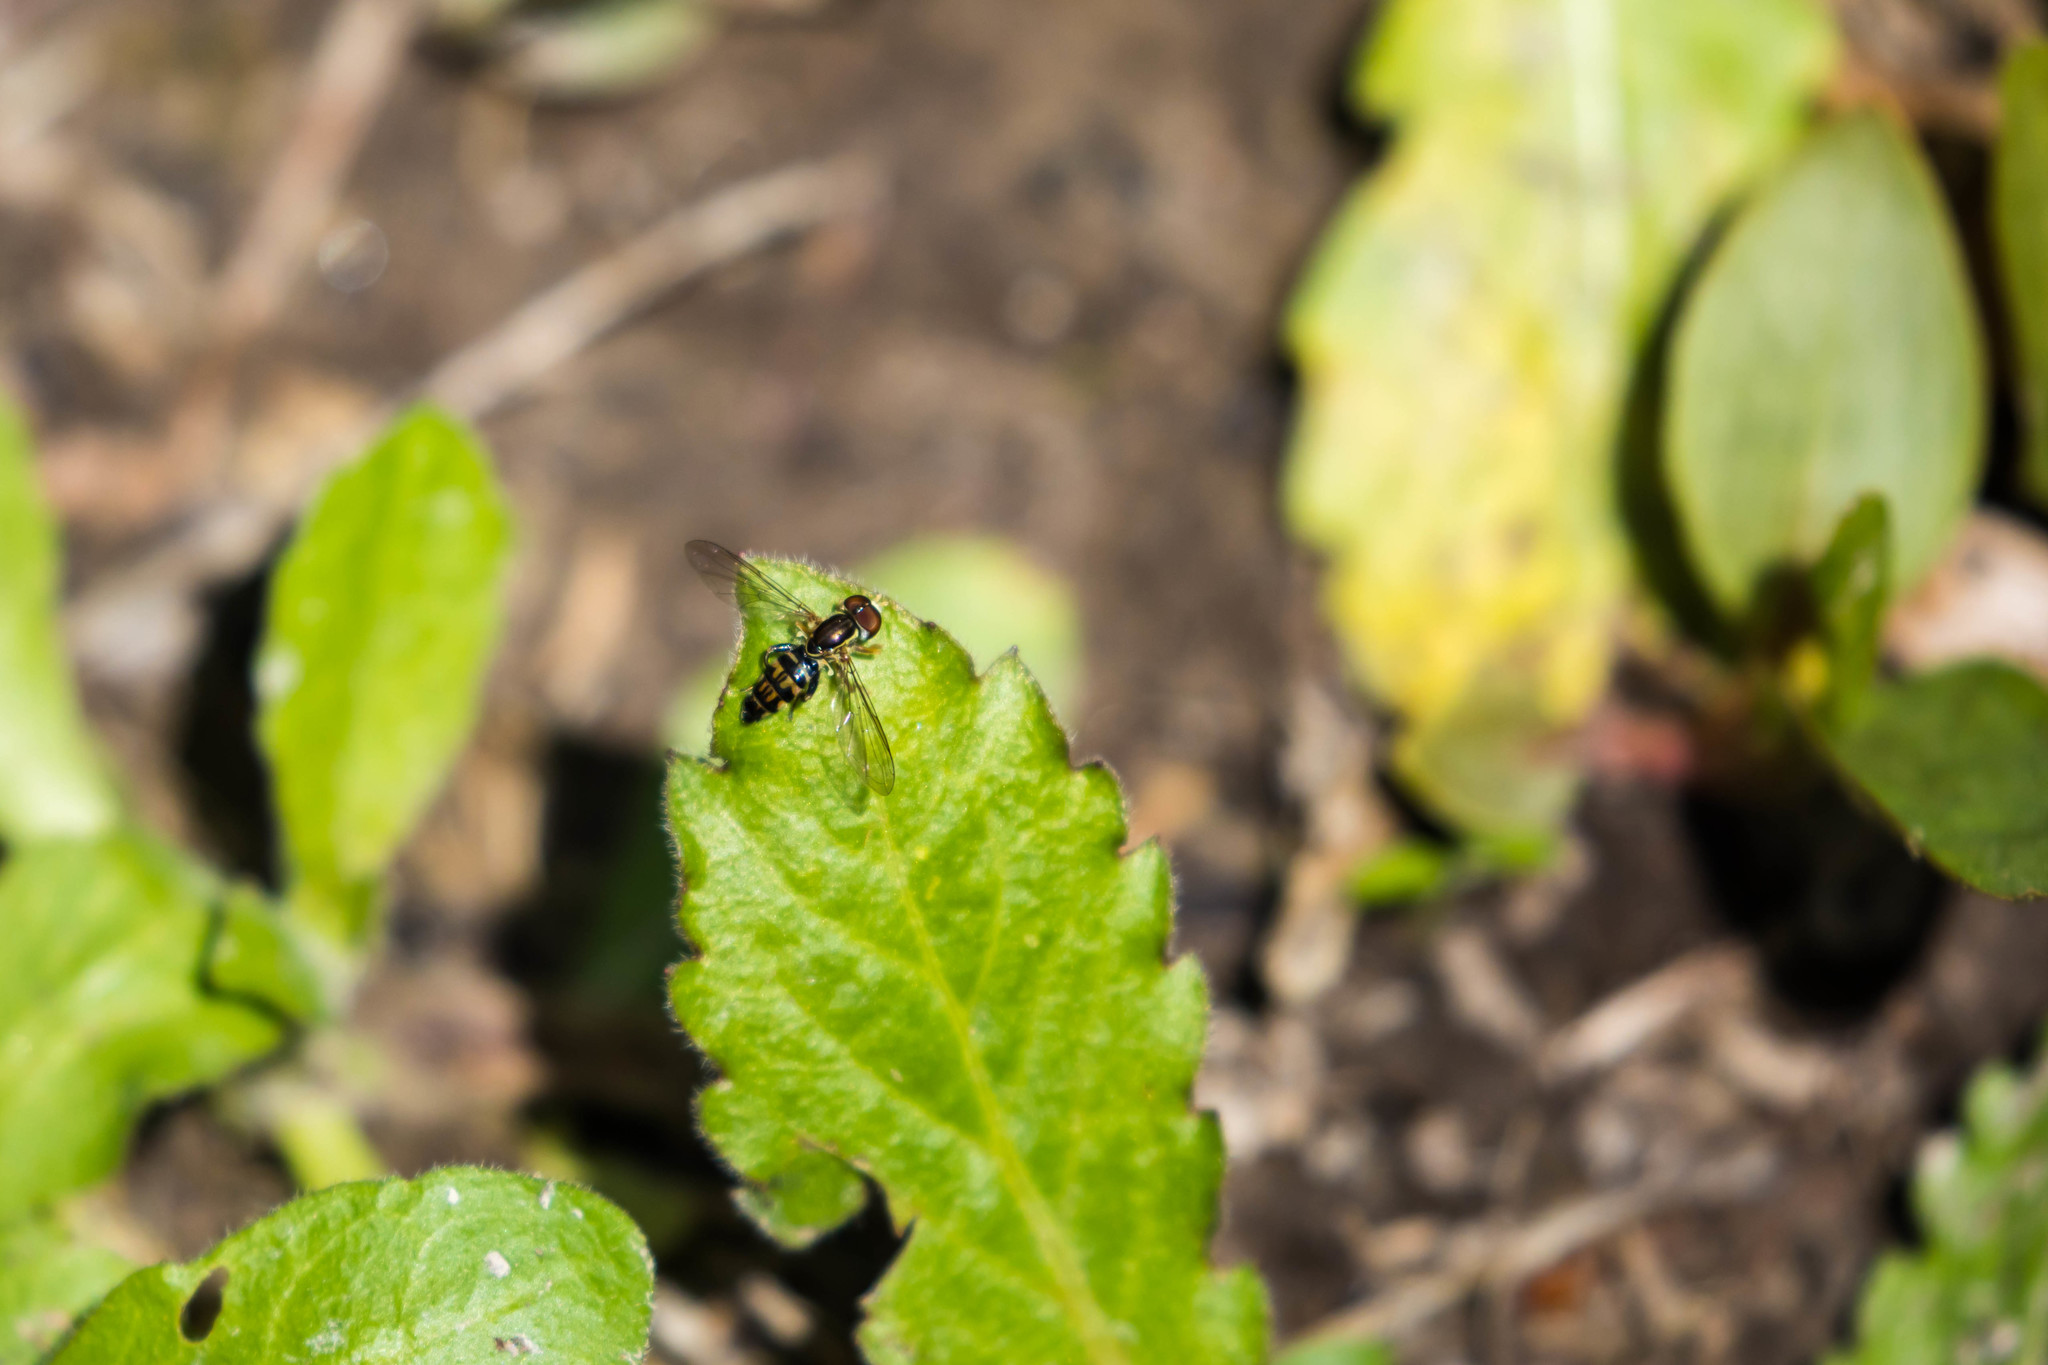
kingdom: Animalia
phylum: Arthropoda
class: Insecta
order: Diptera
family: Syrphidae
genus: Toxomerus
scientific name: Toxomerus geminatus
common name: Eastern calligrapher
